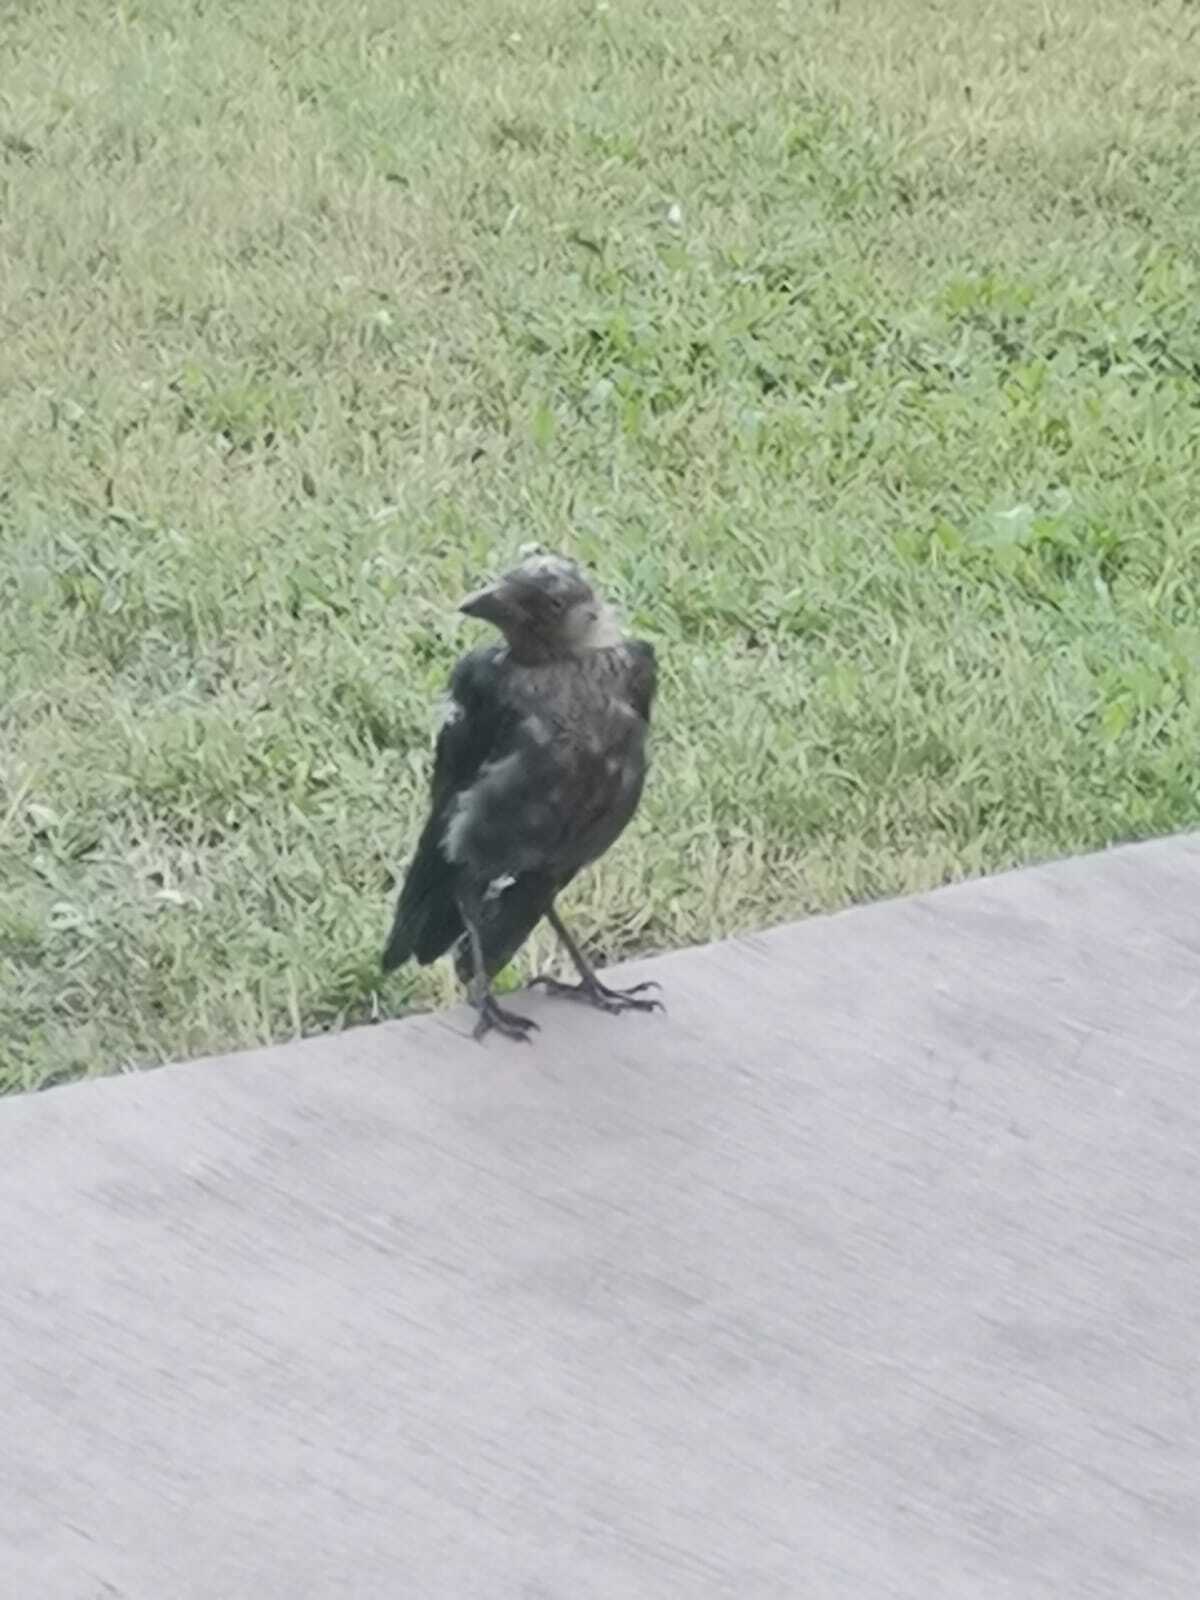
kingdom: Animalia
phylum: Chordata
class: Aves
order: Passeriformes
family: Corvidae
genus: Coloeus
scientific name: Coloeus monedula
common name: Western jackdaw
